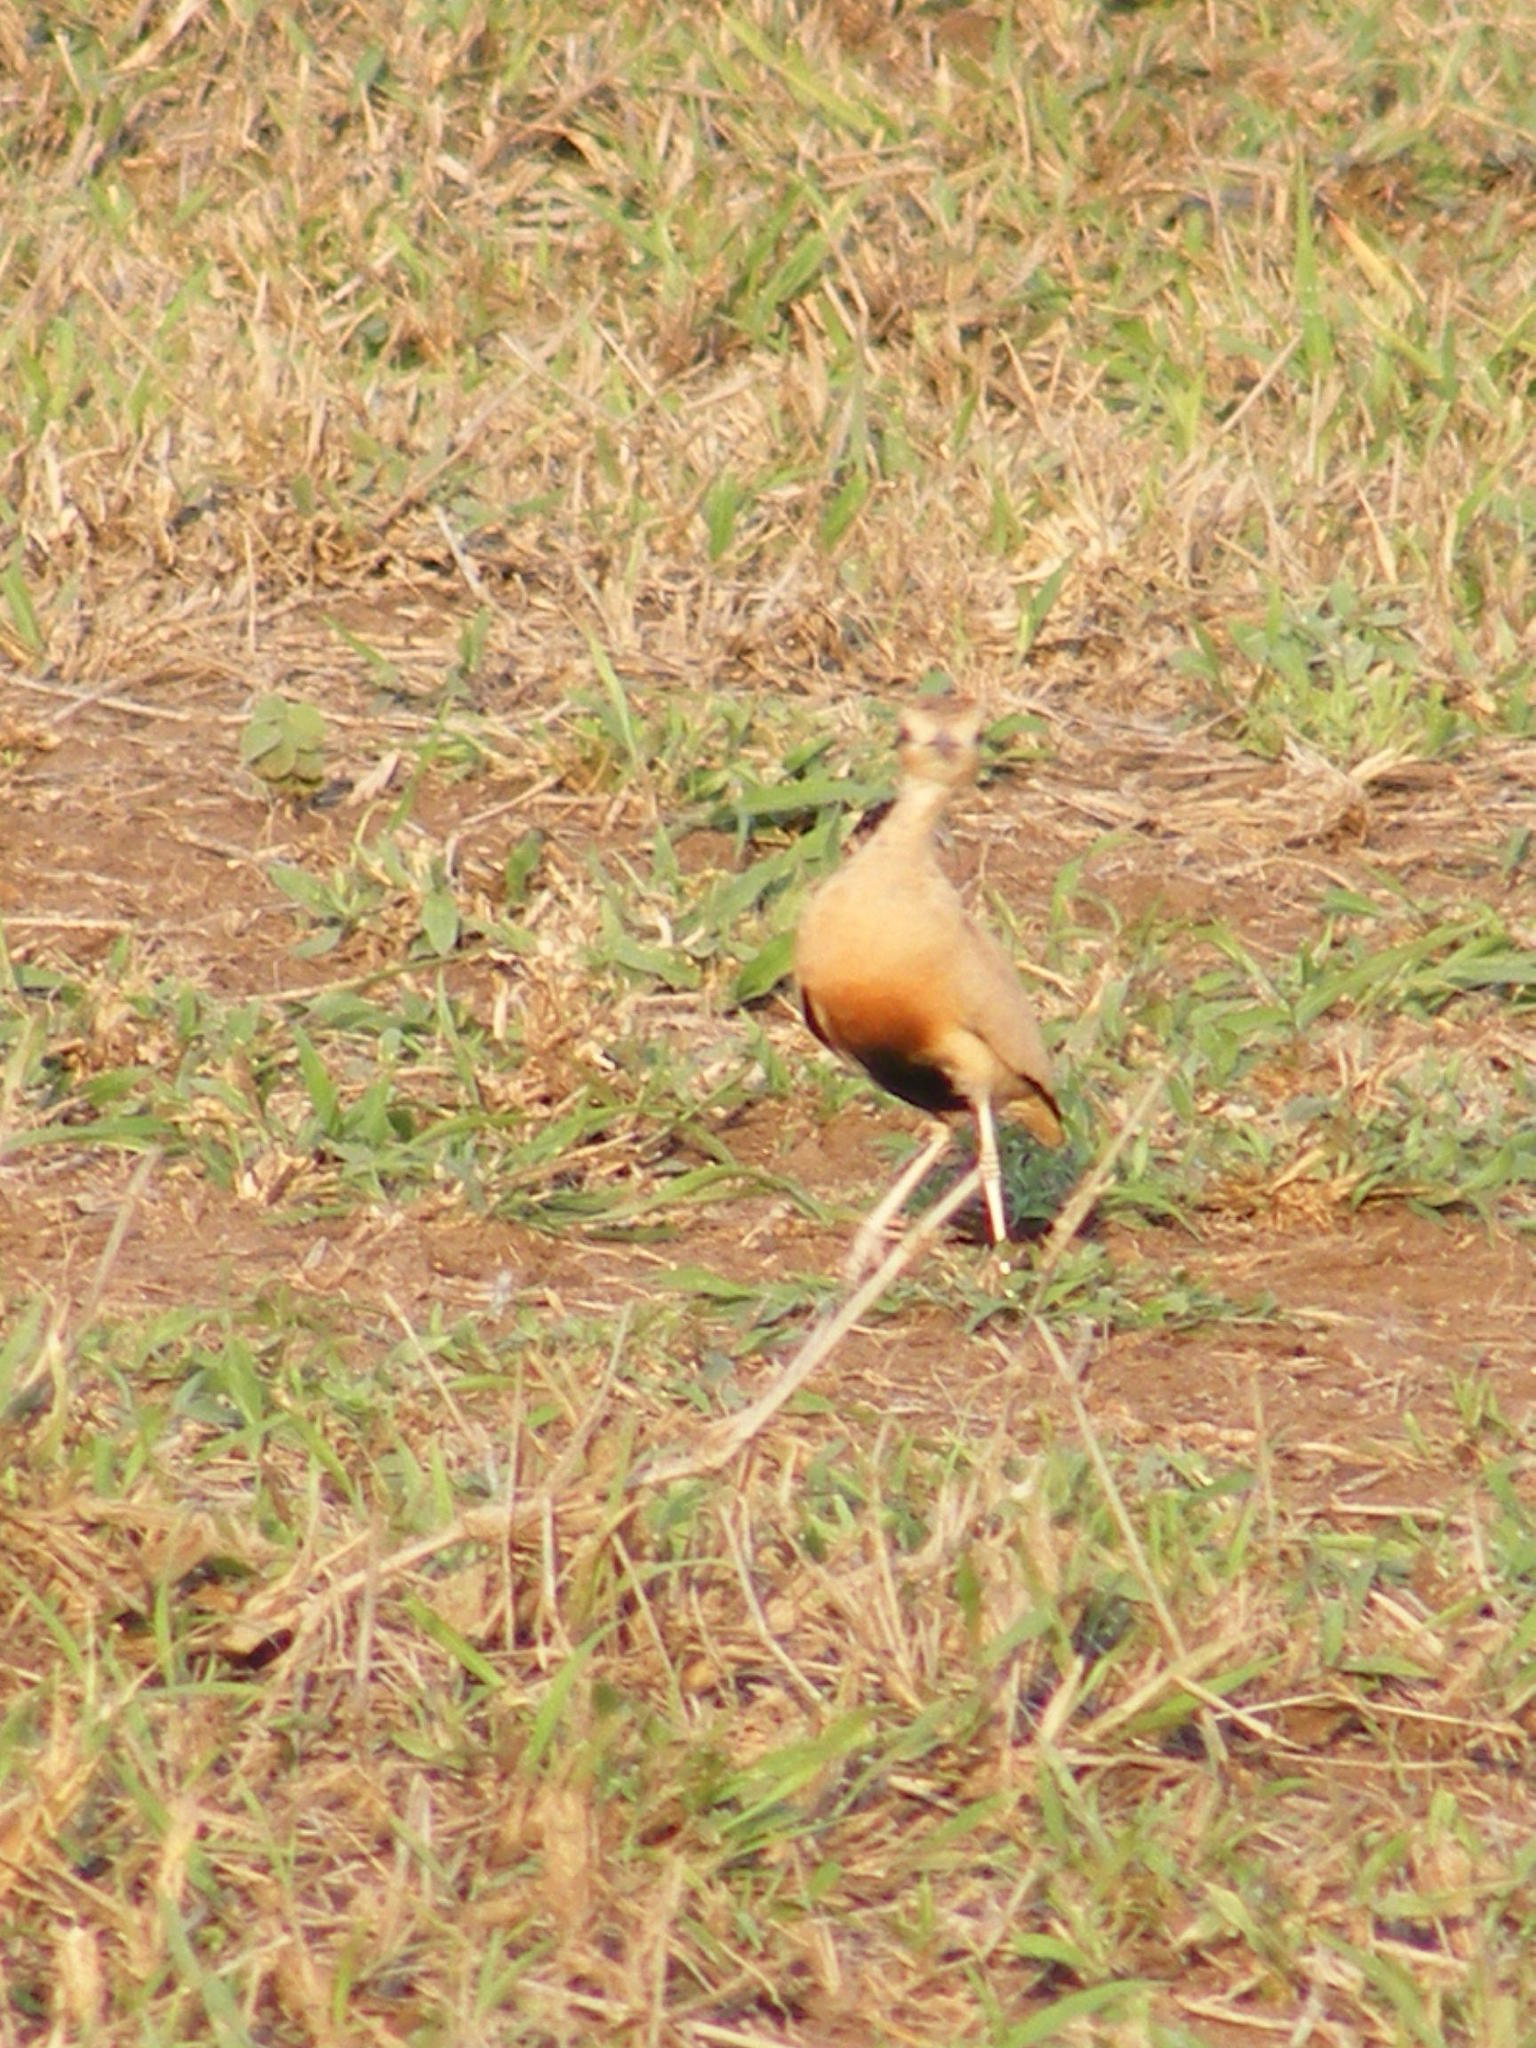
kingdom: Animalia
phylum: Chordata
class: Aves
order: Charadriiformes
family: Glareolidae
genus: Cursorius
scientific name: Cursorius temminckii
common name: Temminck's courser
